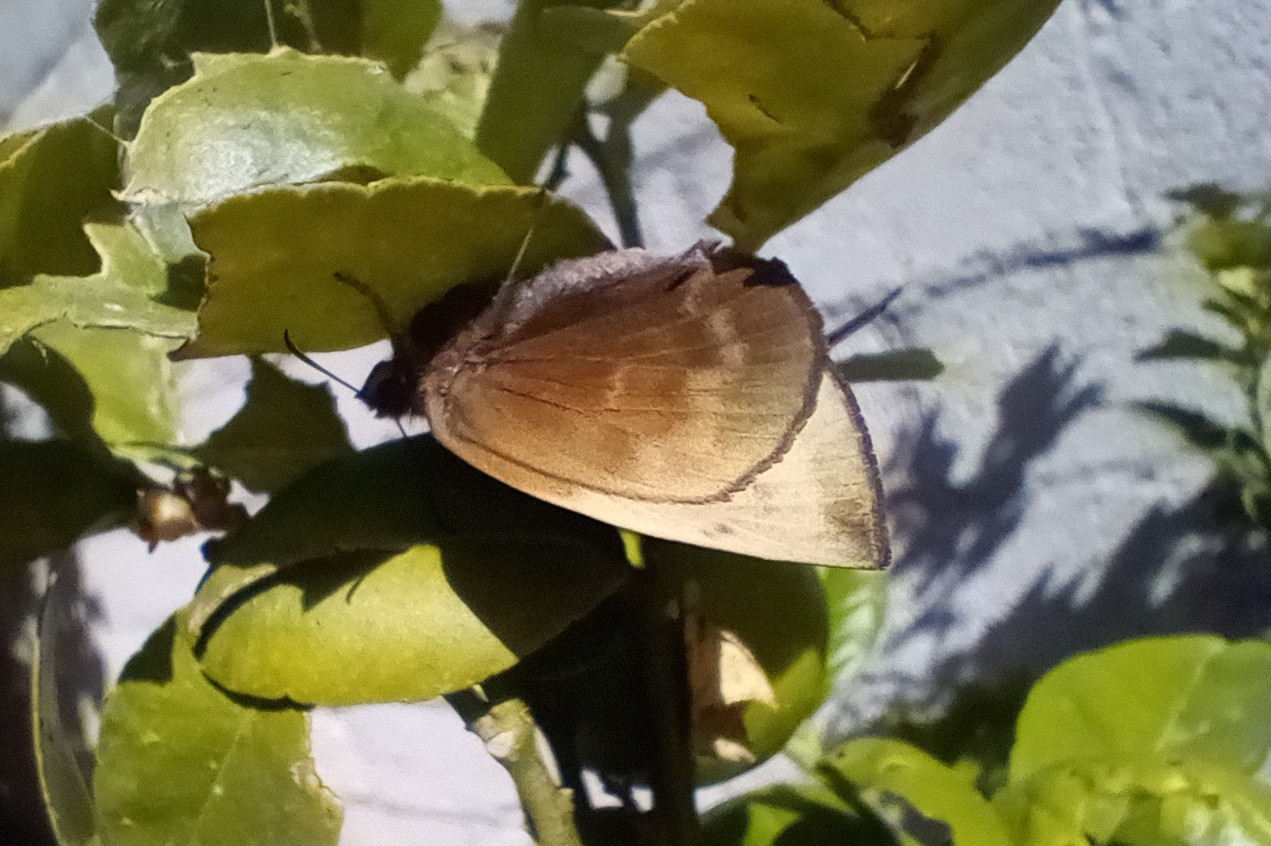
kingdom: Animalia
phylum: Arthropoda
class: Insecta
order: Lepidoptera
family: Hesperiidae
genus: Achlyodes
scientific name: Achlyodes pallida
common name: Pale sicklewing
